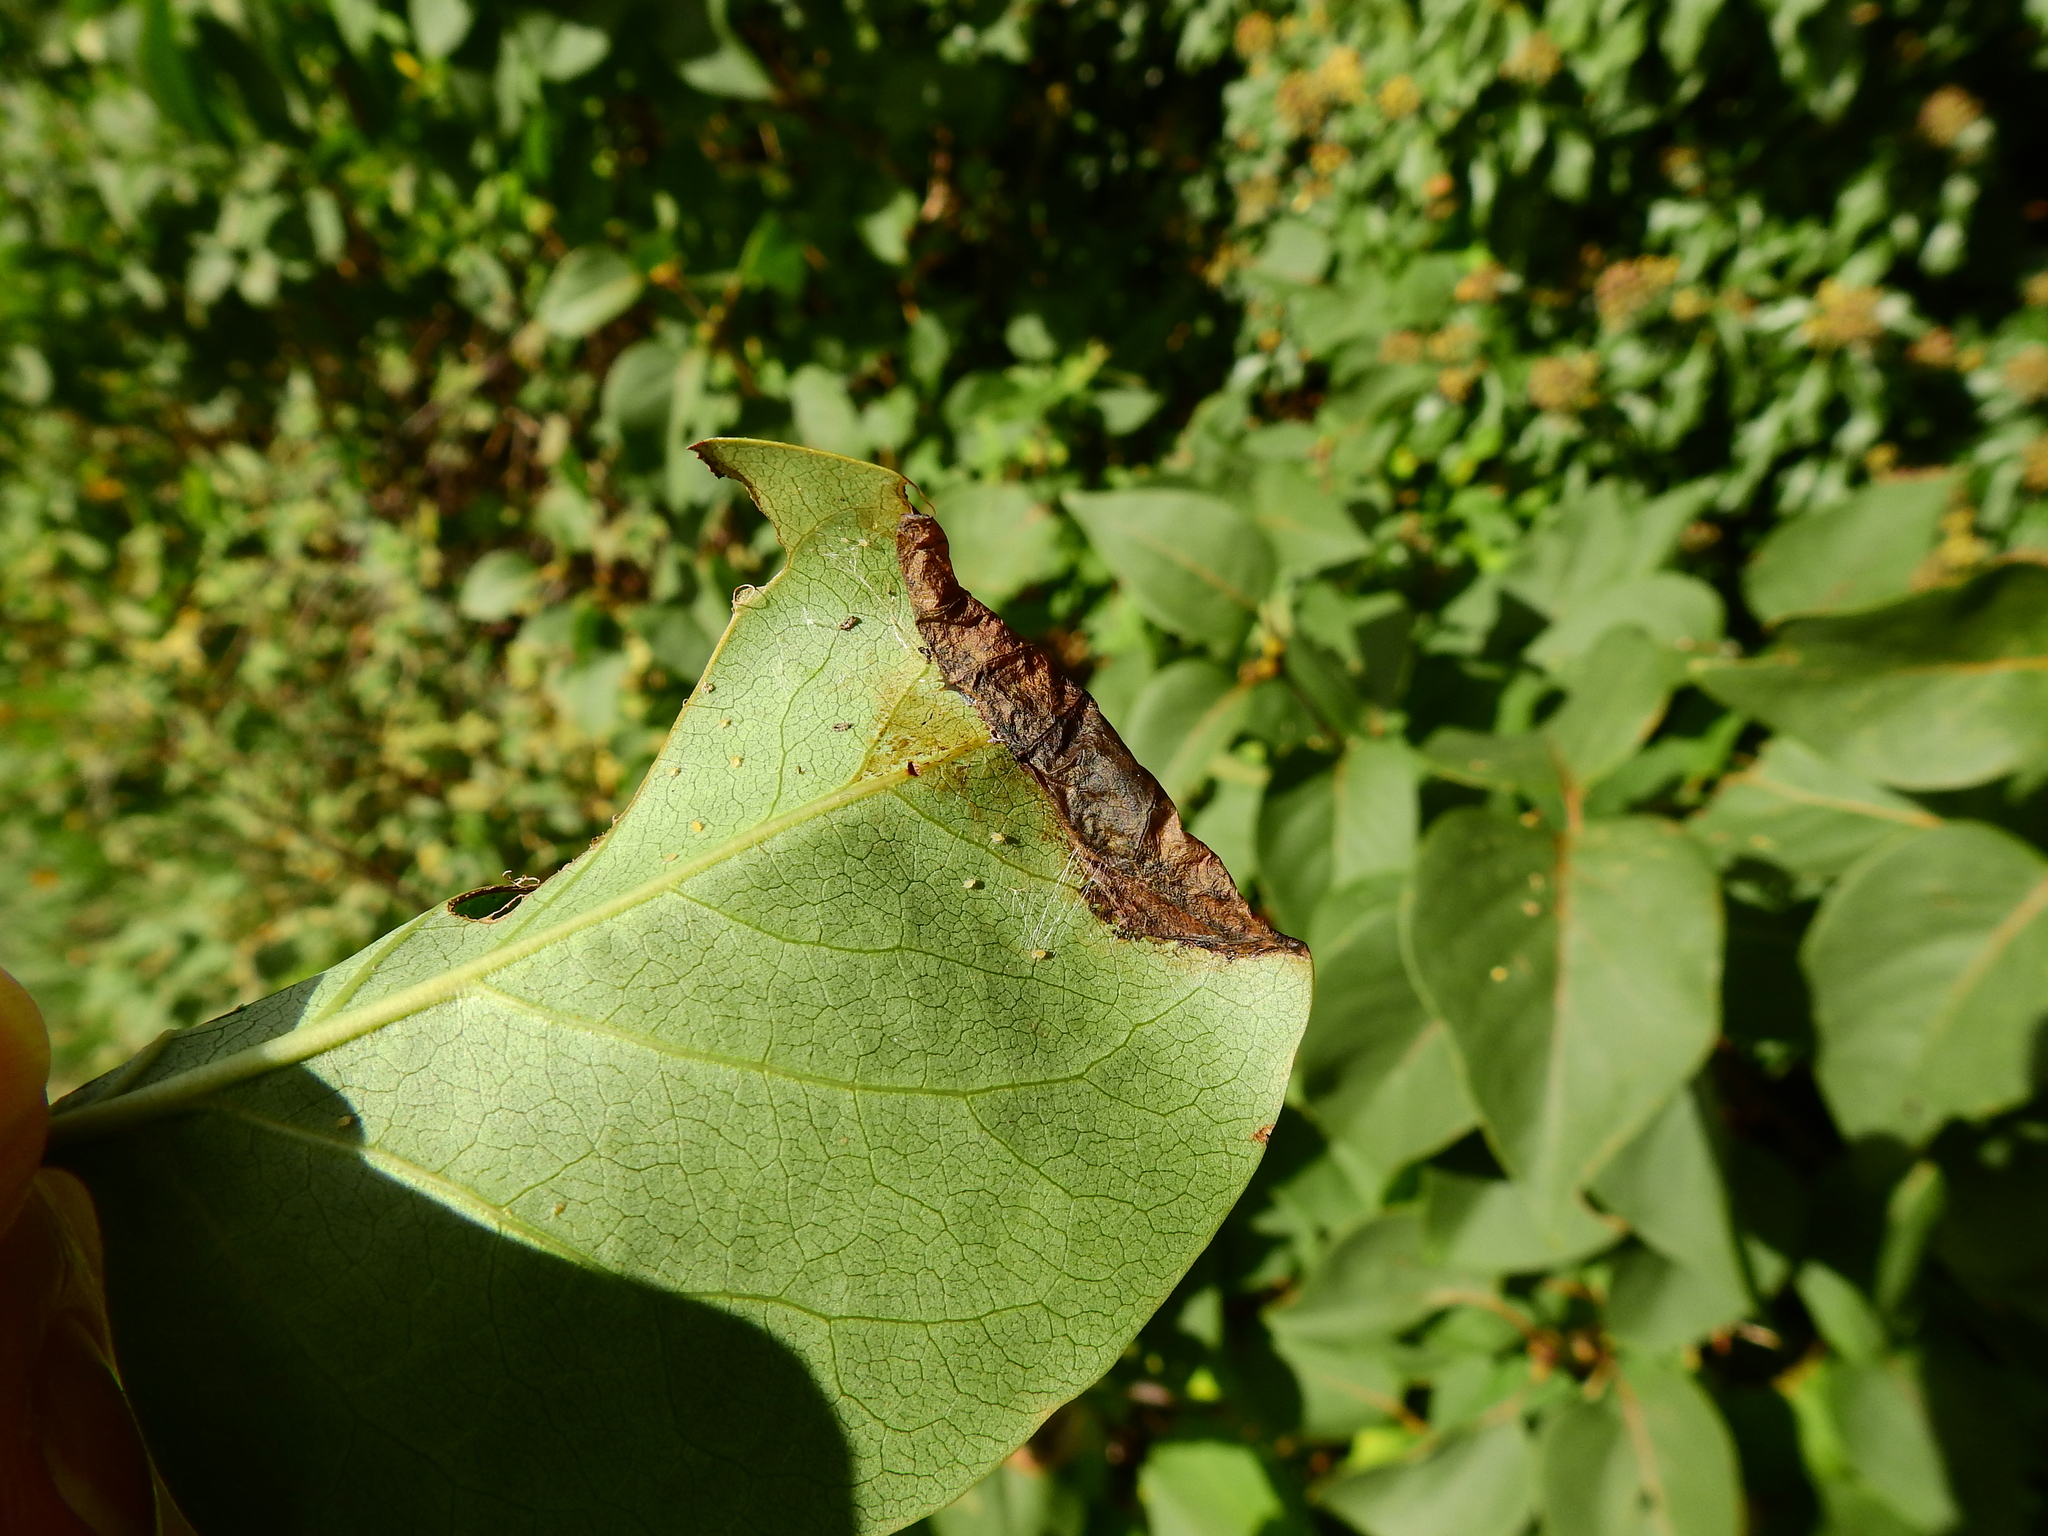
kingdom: Animalia
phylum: Arthropoda
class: Insecta
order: Lepidoptera
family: Gracillariidae
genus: Gracillaria
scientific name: Gracillaria syringella
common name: Common slender
